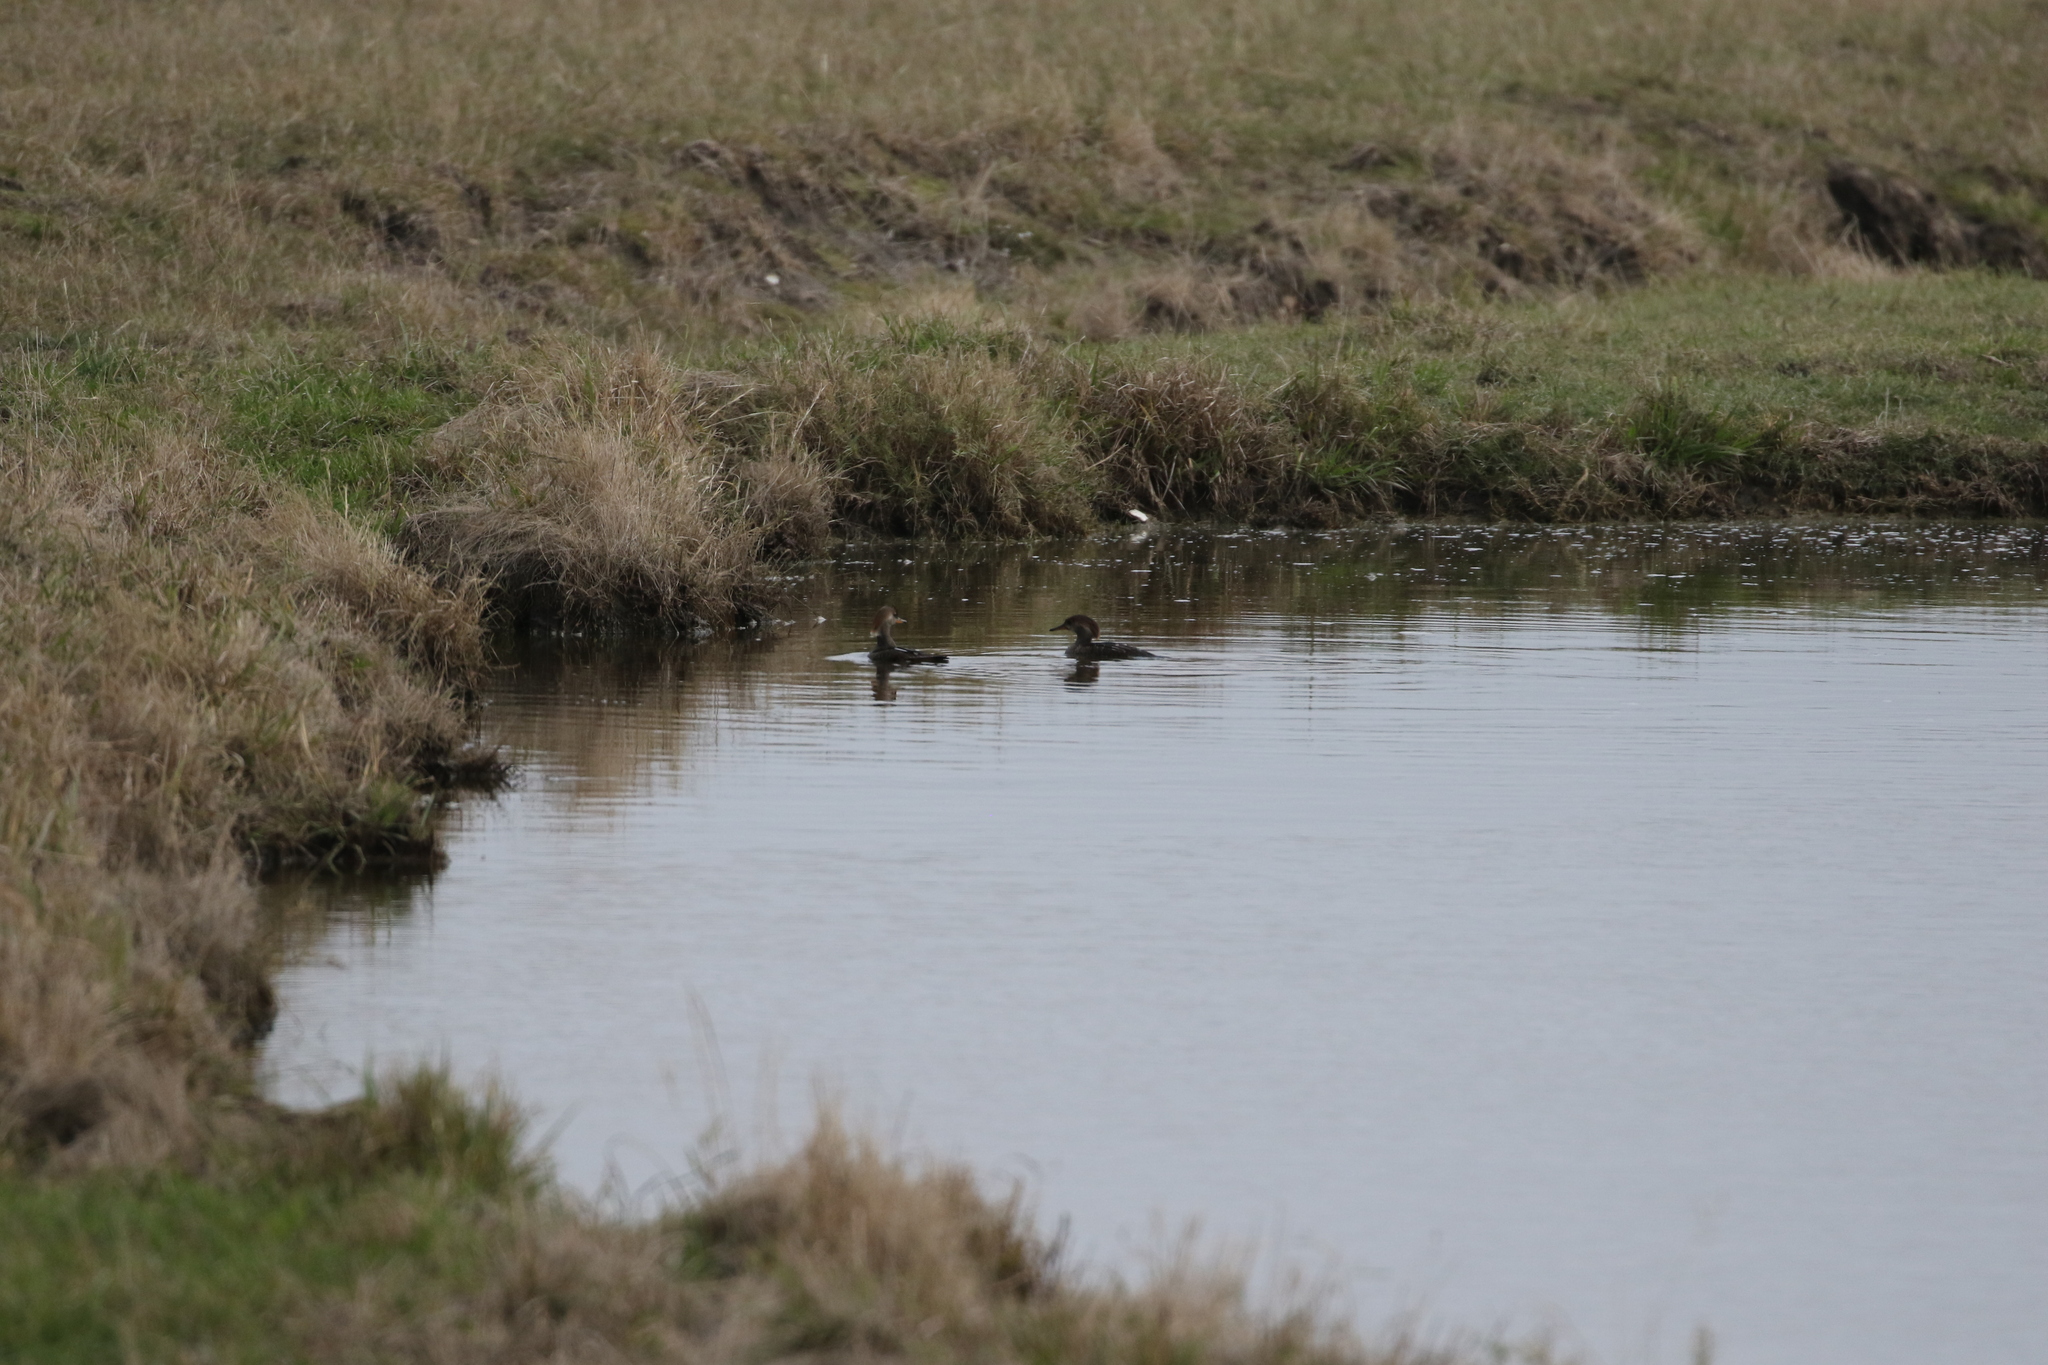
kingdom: Animalia
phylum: Chordata
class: Aves
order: Anseriformes
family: Anatidae
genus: Lophodytes
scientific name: Lophodytes cucullatus
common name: Hooded merganser
